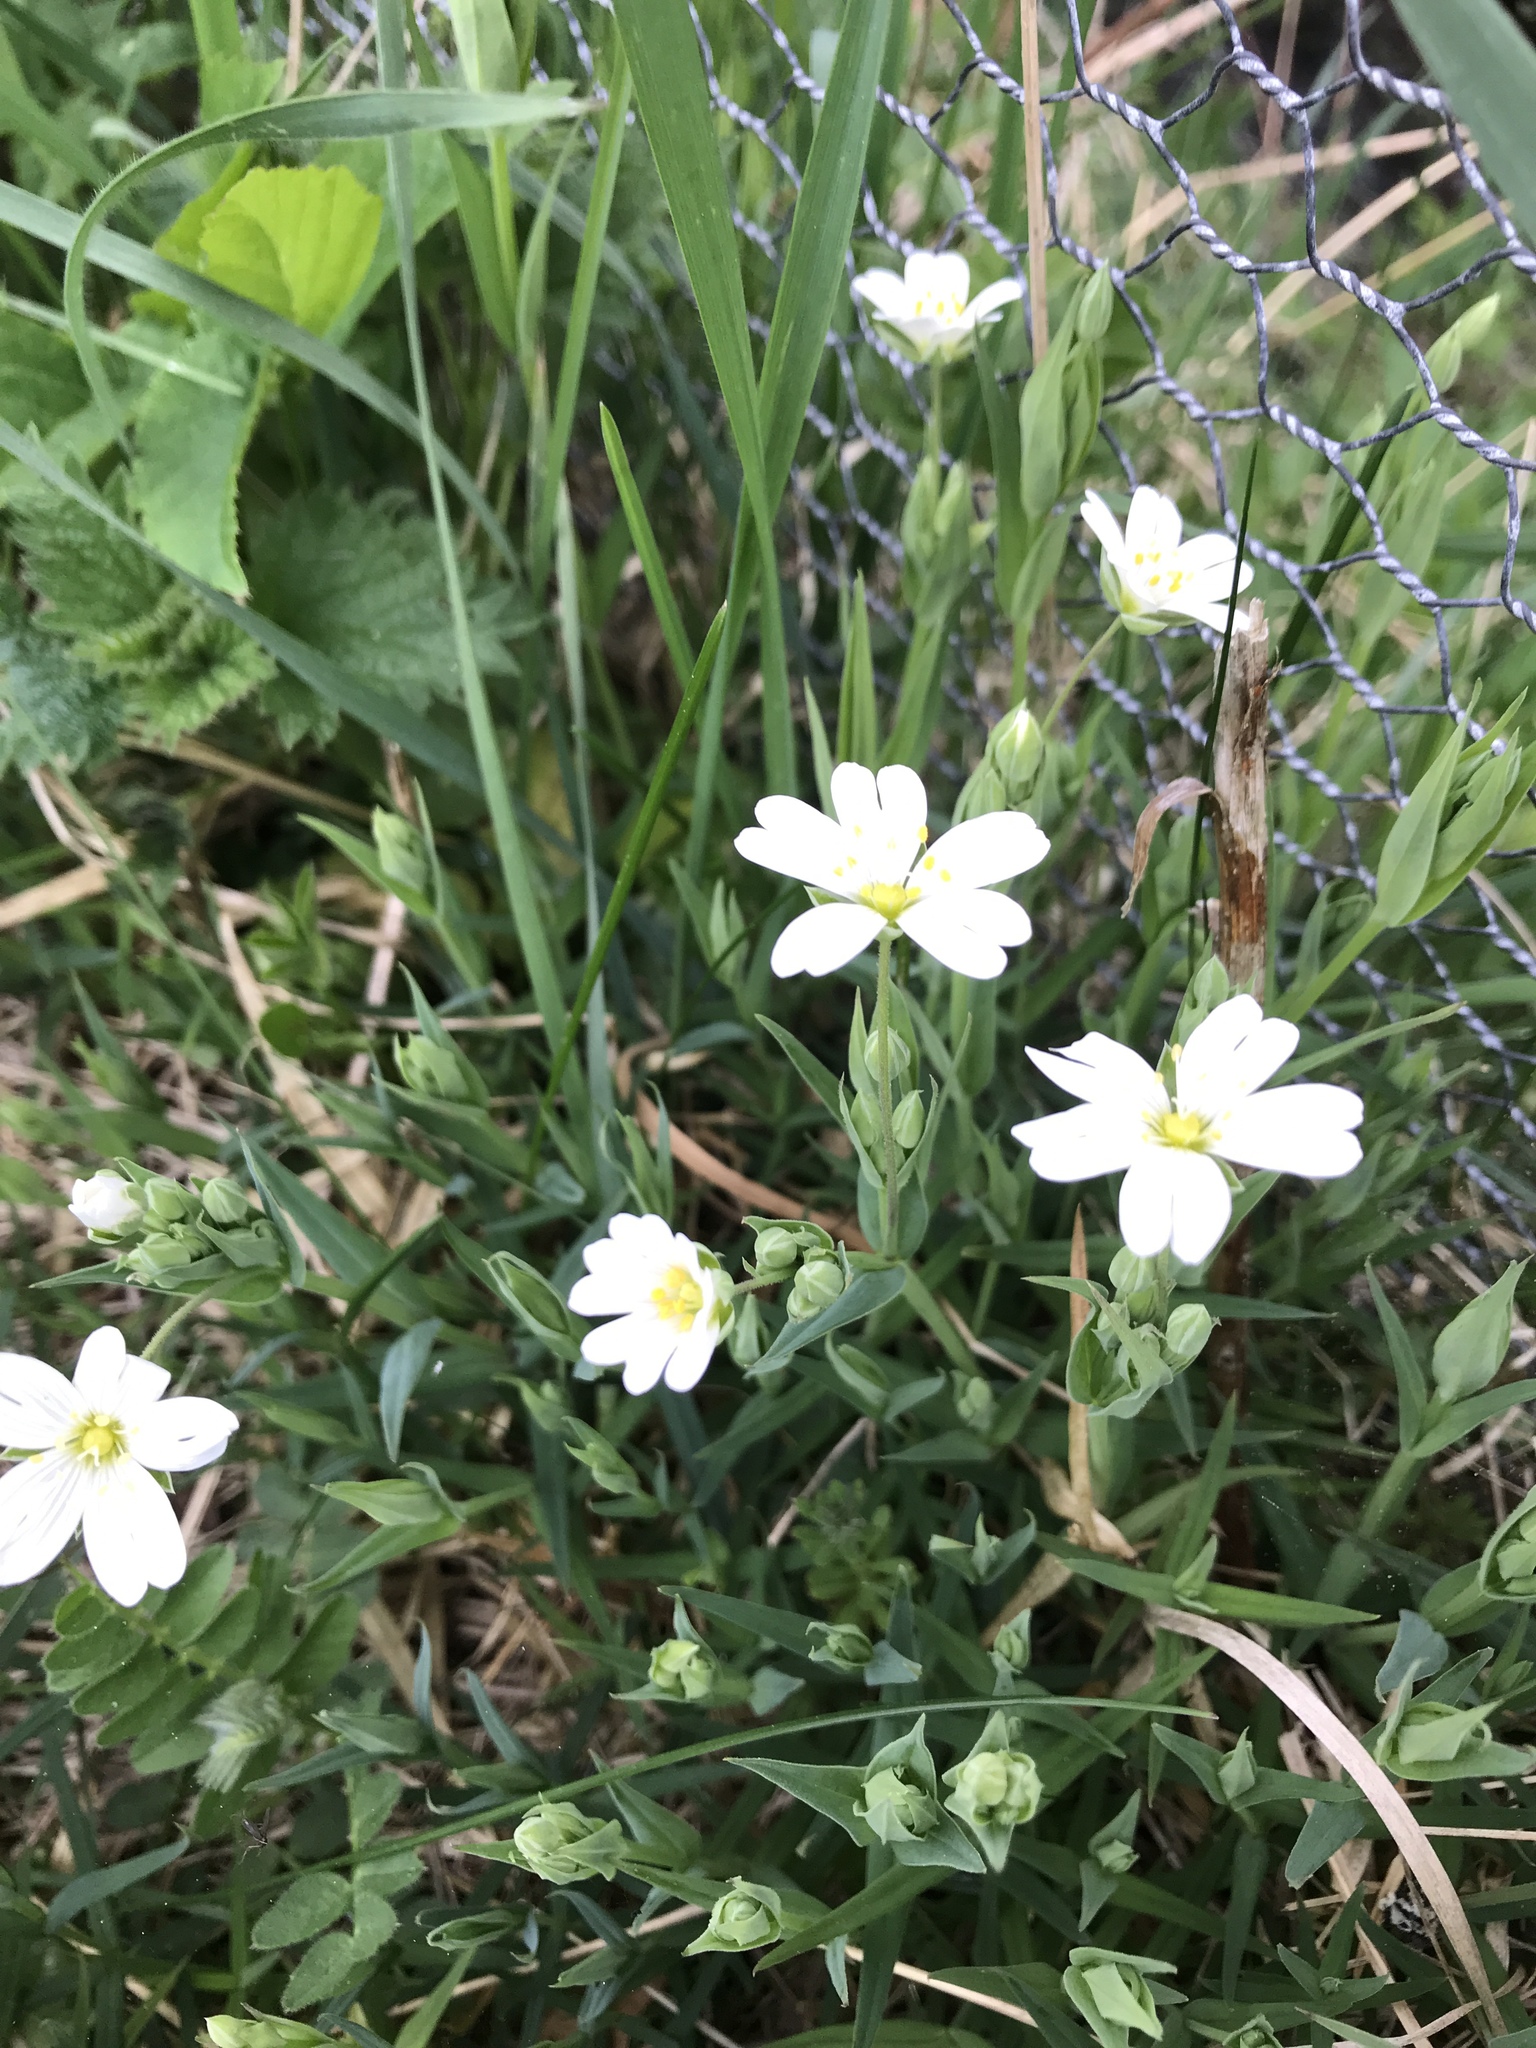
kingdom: Plantae
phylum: Tracheophyta
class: Magnoliopsida
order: Caryophyllales
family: Caryophyllaceae
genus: Rabelera
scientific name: Rabelera holostea
